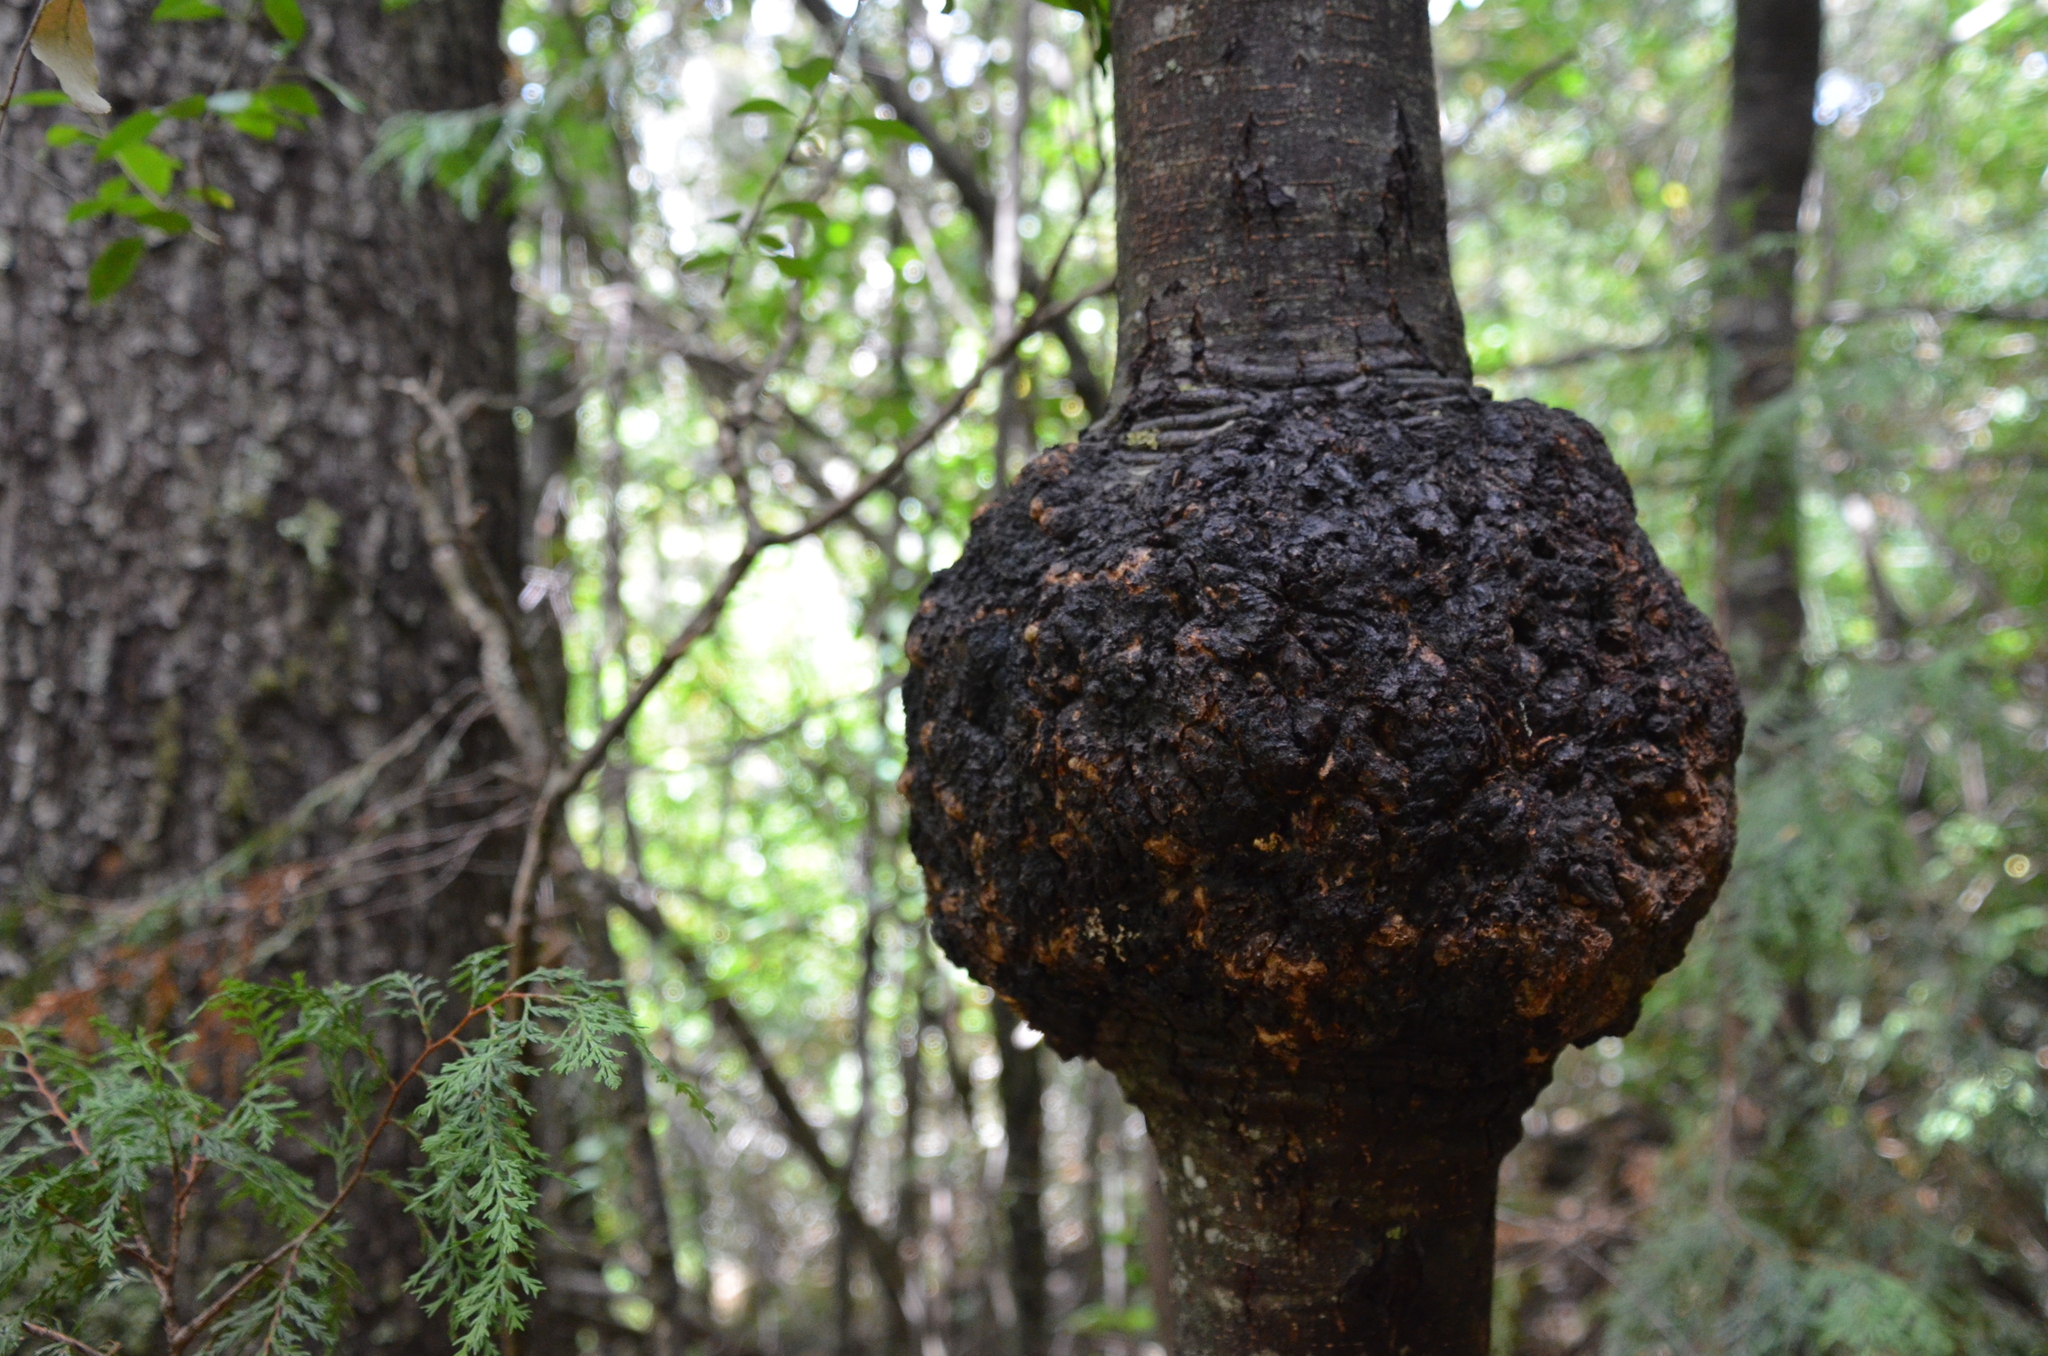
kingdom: Fungi
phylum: Ascomycota
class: Leotiomycetes
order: Cyttariales
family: Cyttariaceae
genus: Cyttaria
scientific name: Cyttaria hariotii
